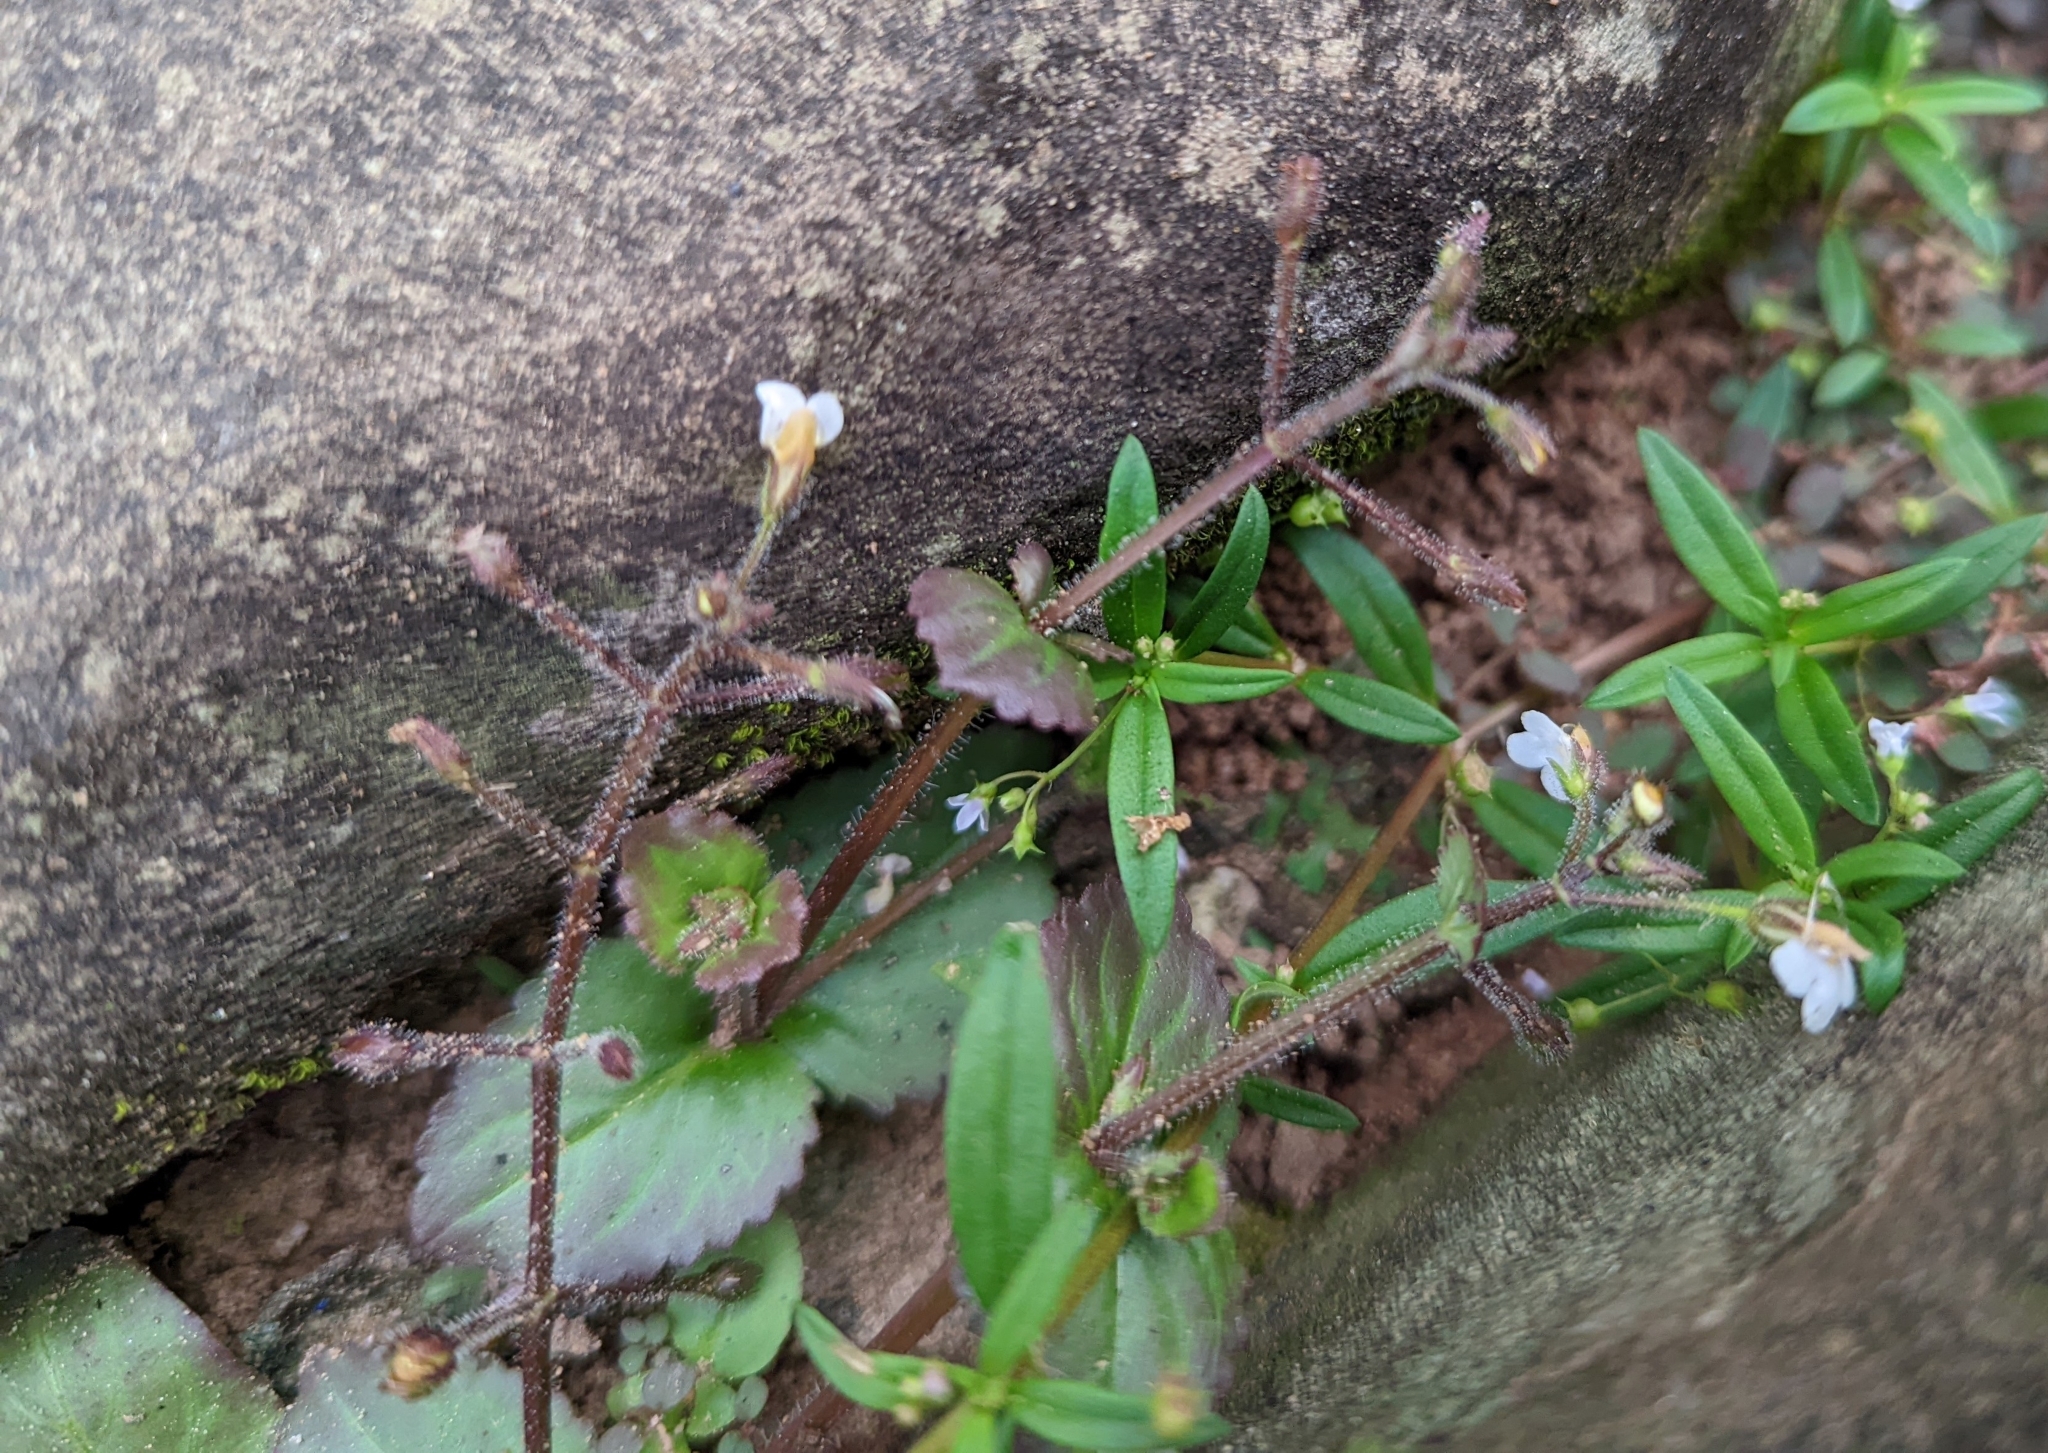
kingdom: Plantae
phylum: Tracheophyta
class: Magnoliopsida
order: Lamiales
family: Linderniaceae
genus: Yamazakia
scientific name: Yamazakia viscosa
